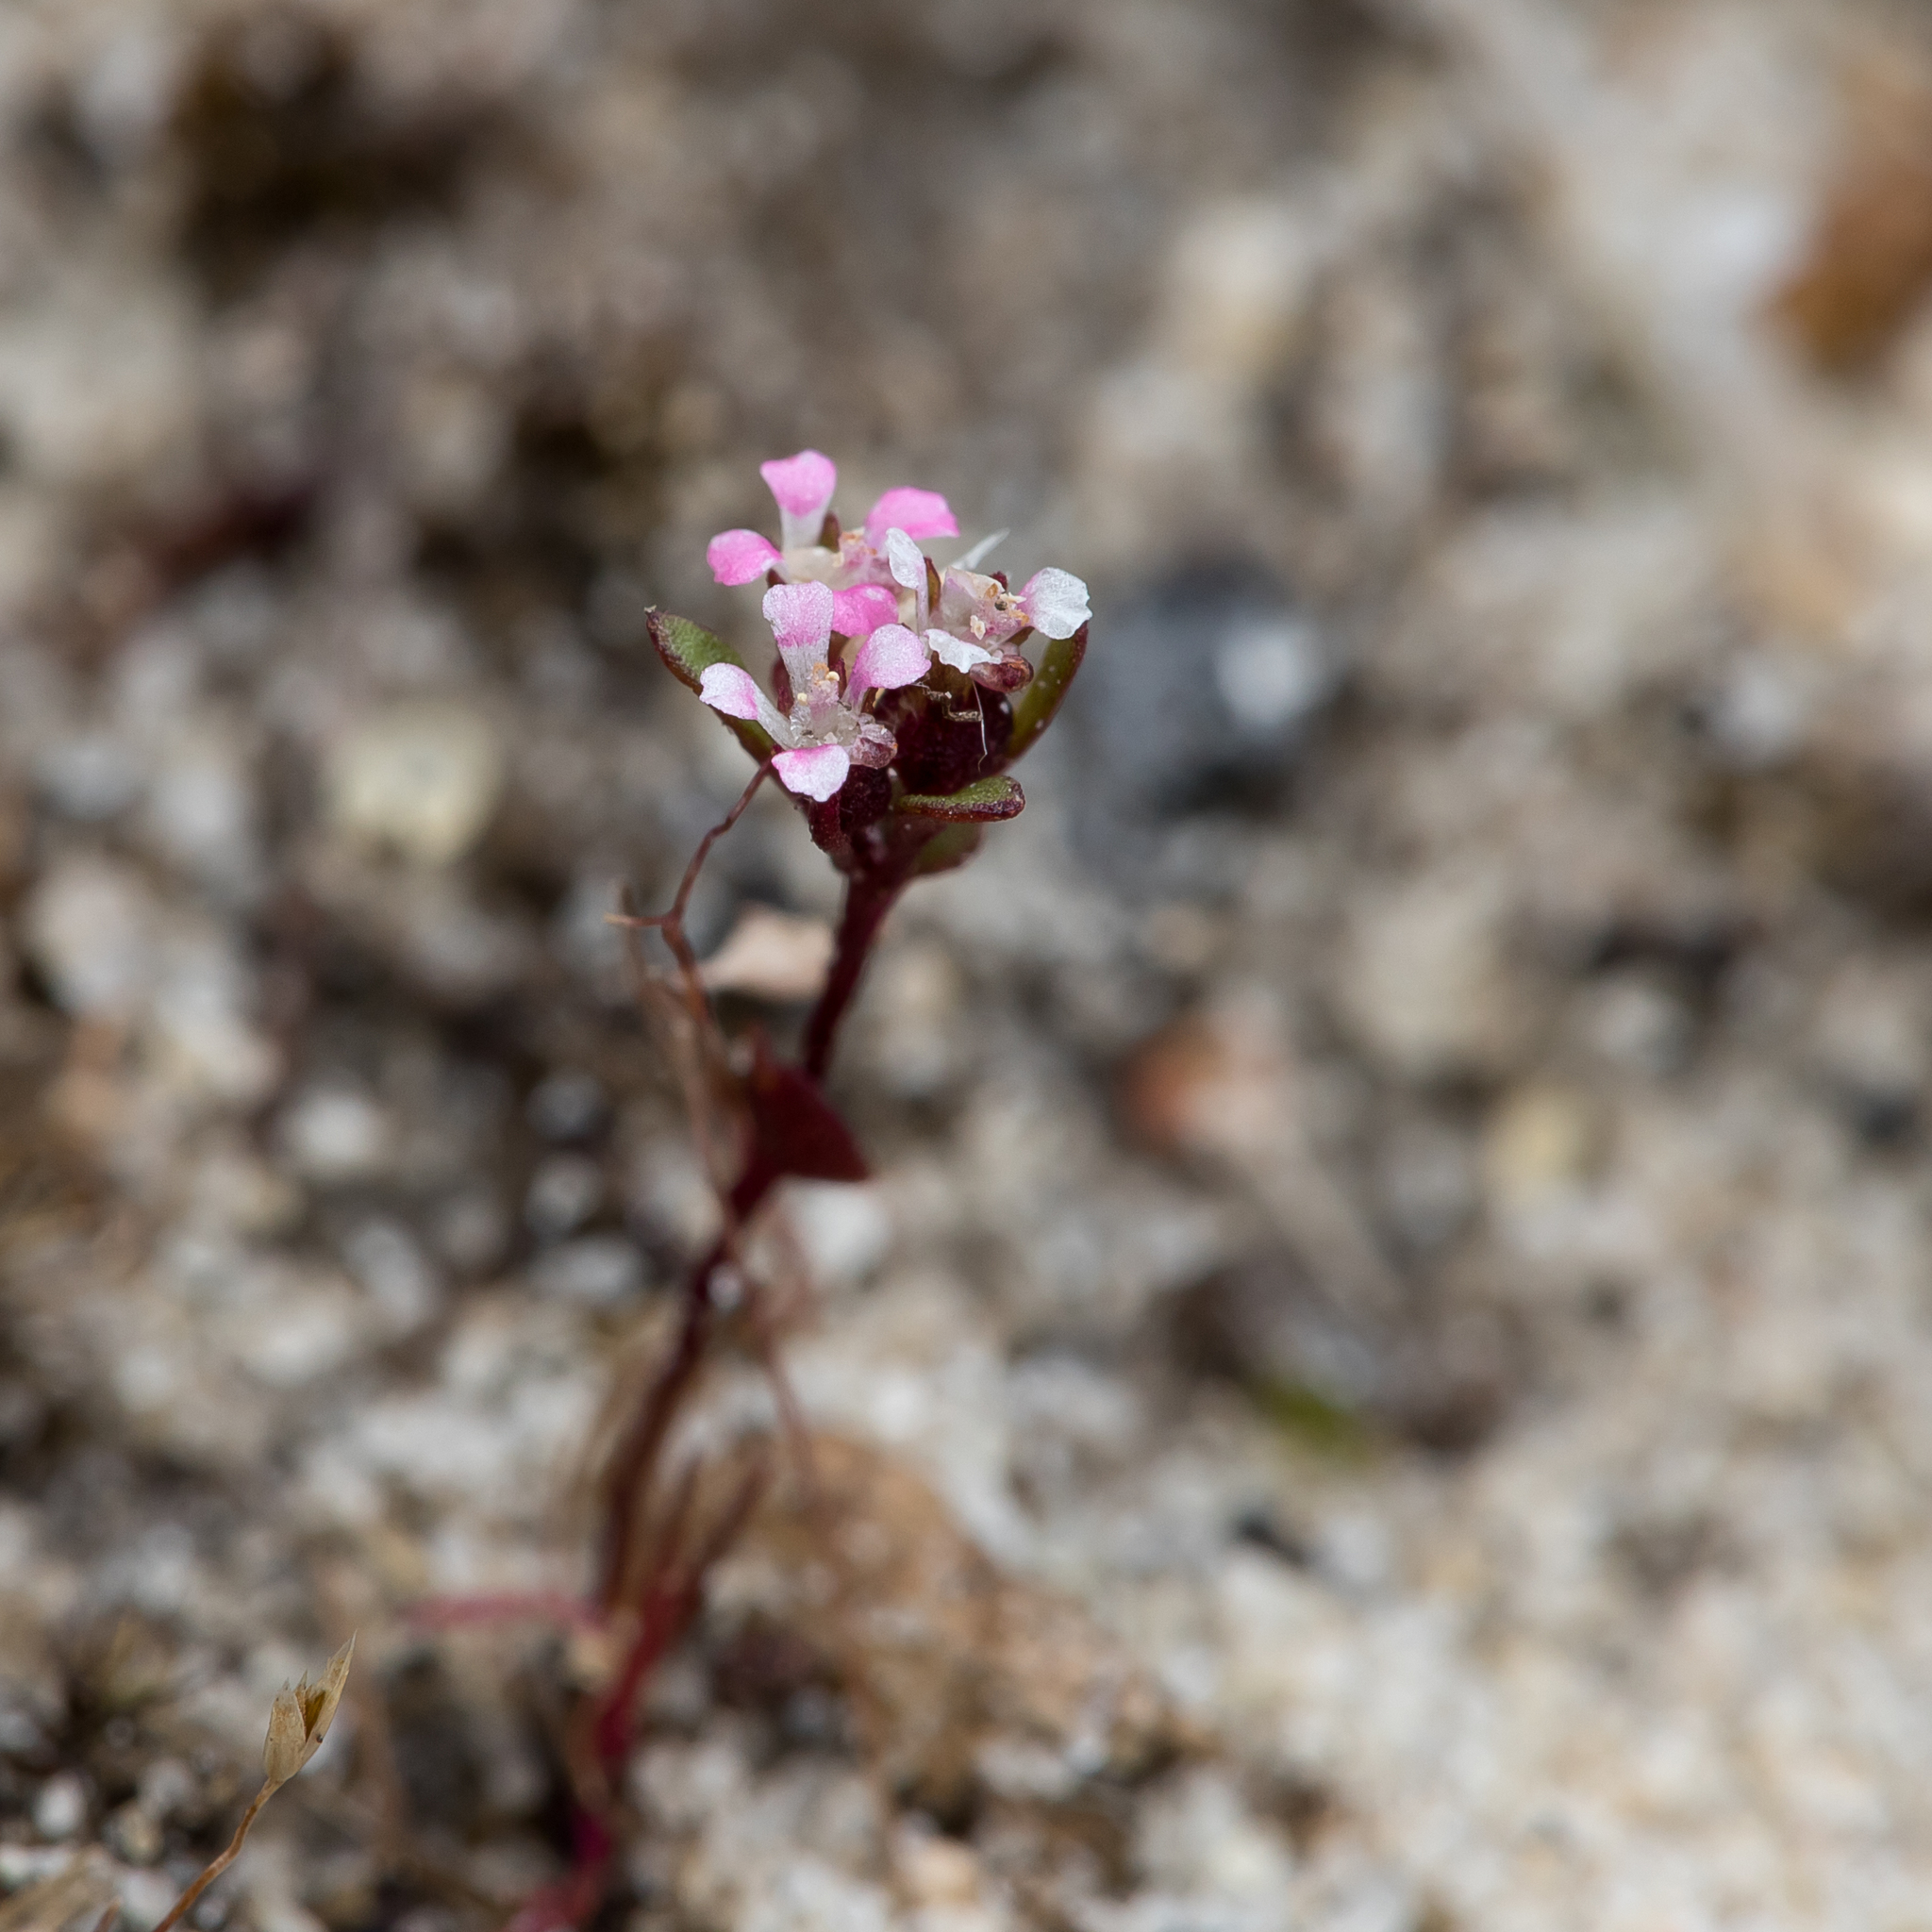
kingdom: Plantae
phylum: Tracheophyta
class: Magnoliopsida
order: Asterales
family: Stylidiaceae
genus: Levenhookia
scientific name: Levenhookia pusilla
